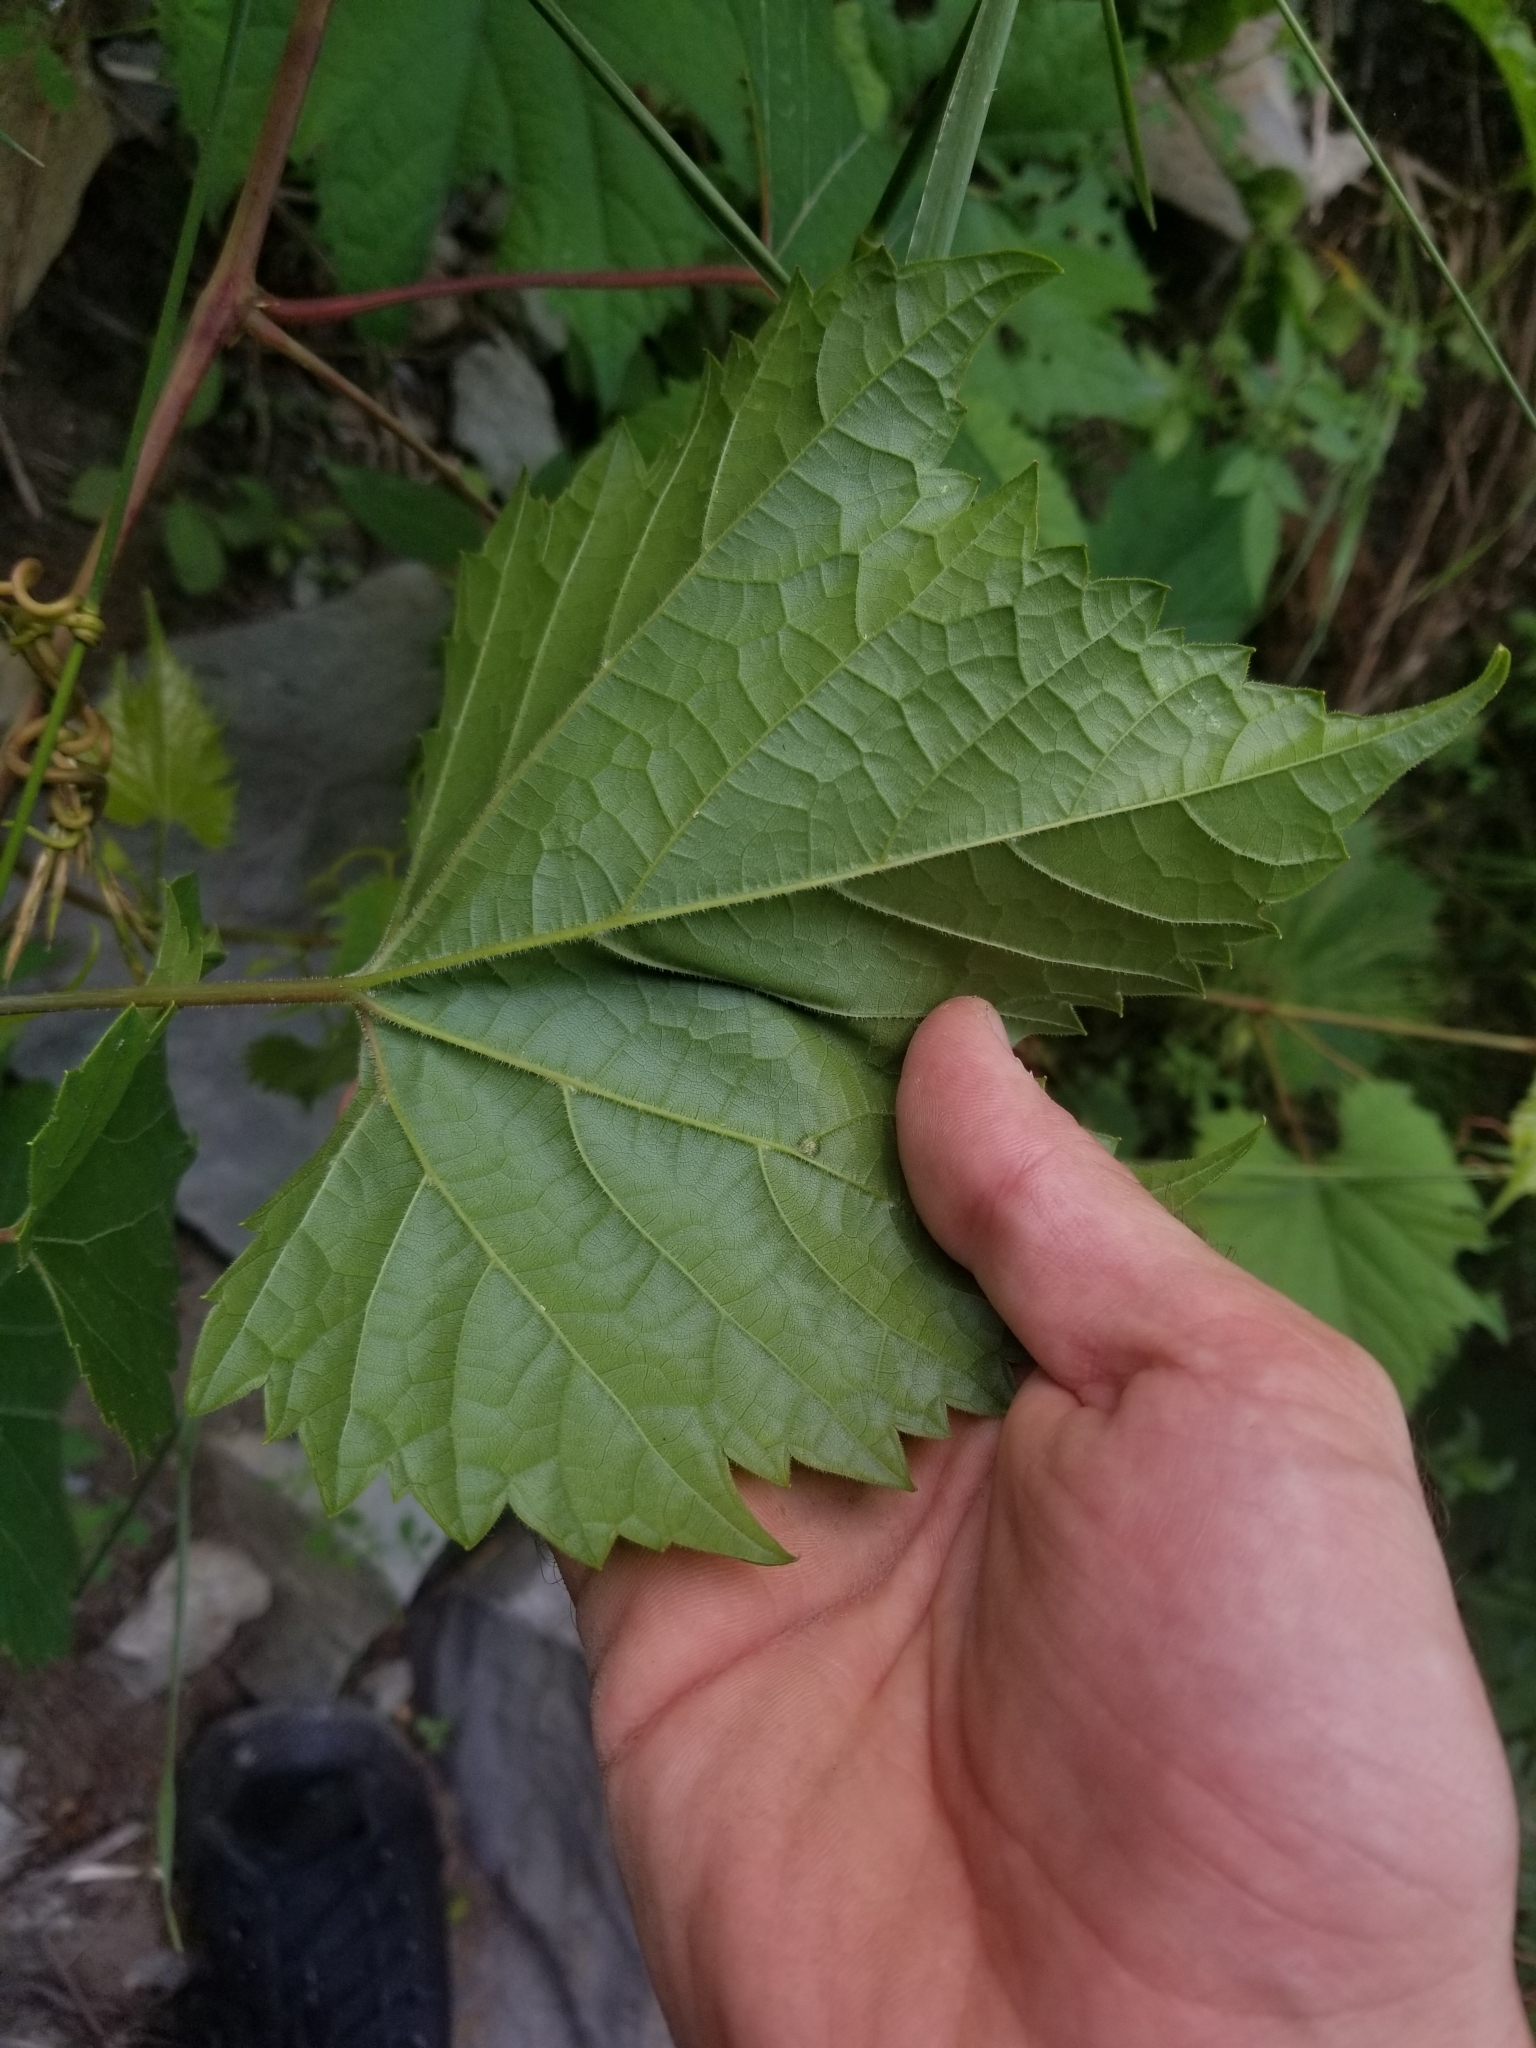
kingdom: Plantae
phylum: Tracheophyta
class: Magnoliopsida
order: Vitales
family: Vitaceae
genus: Vitis
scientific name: Vitis riparia
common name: Frost grape
